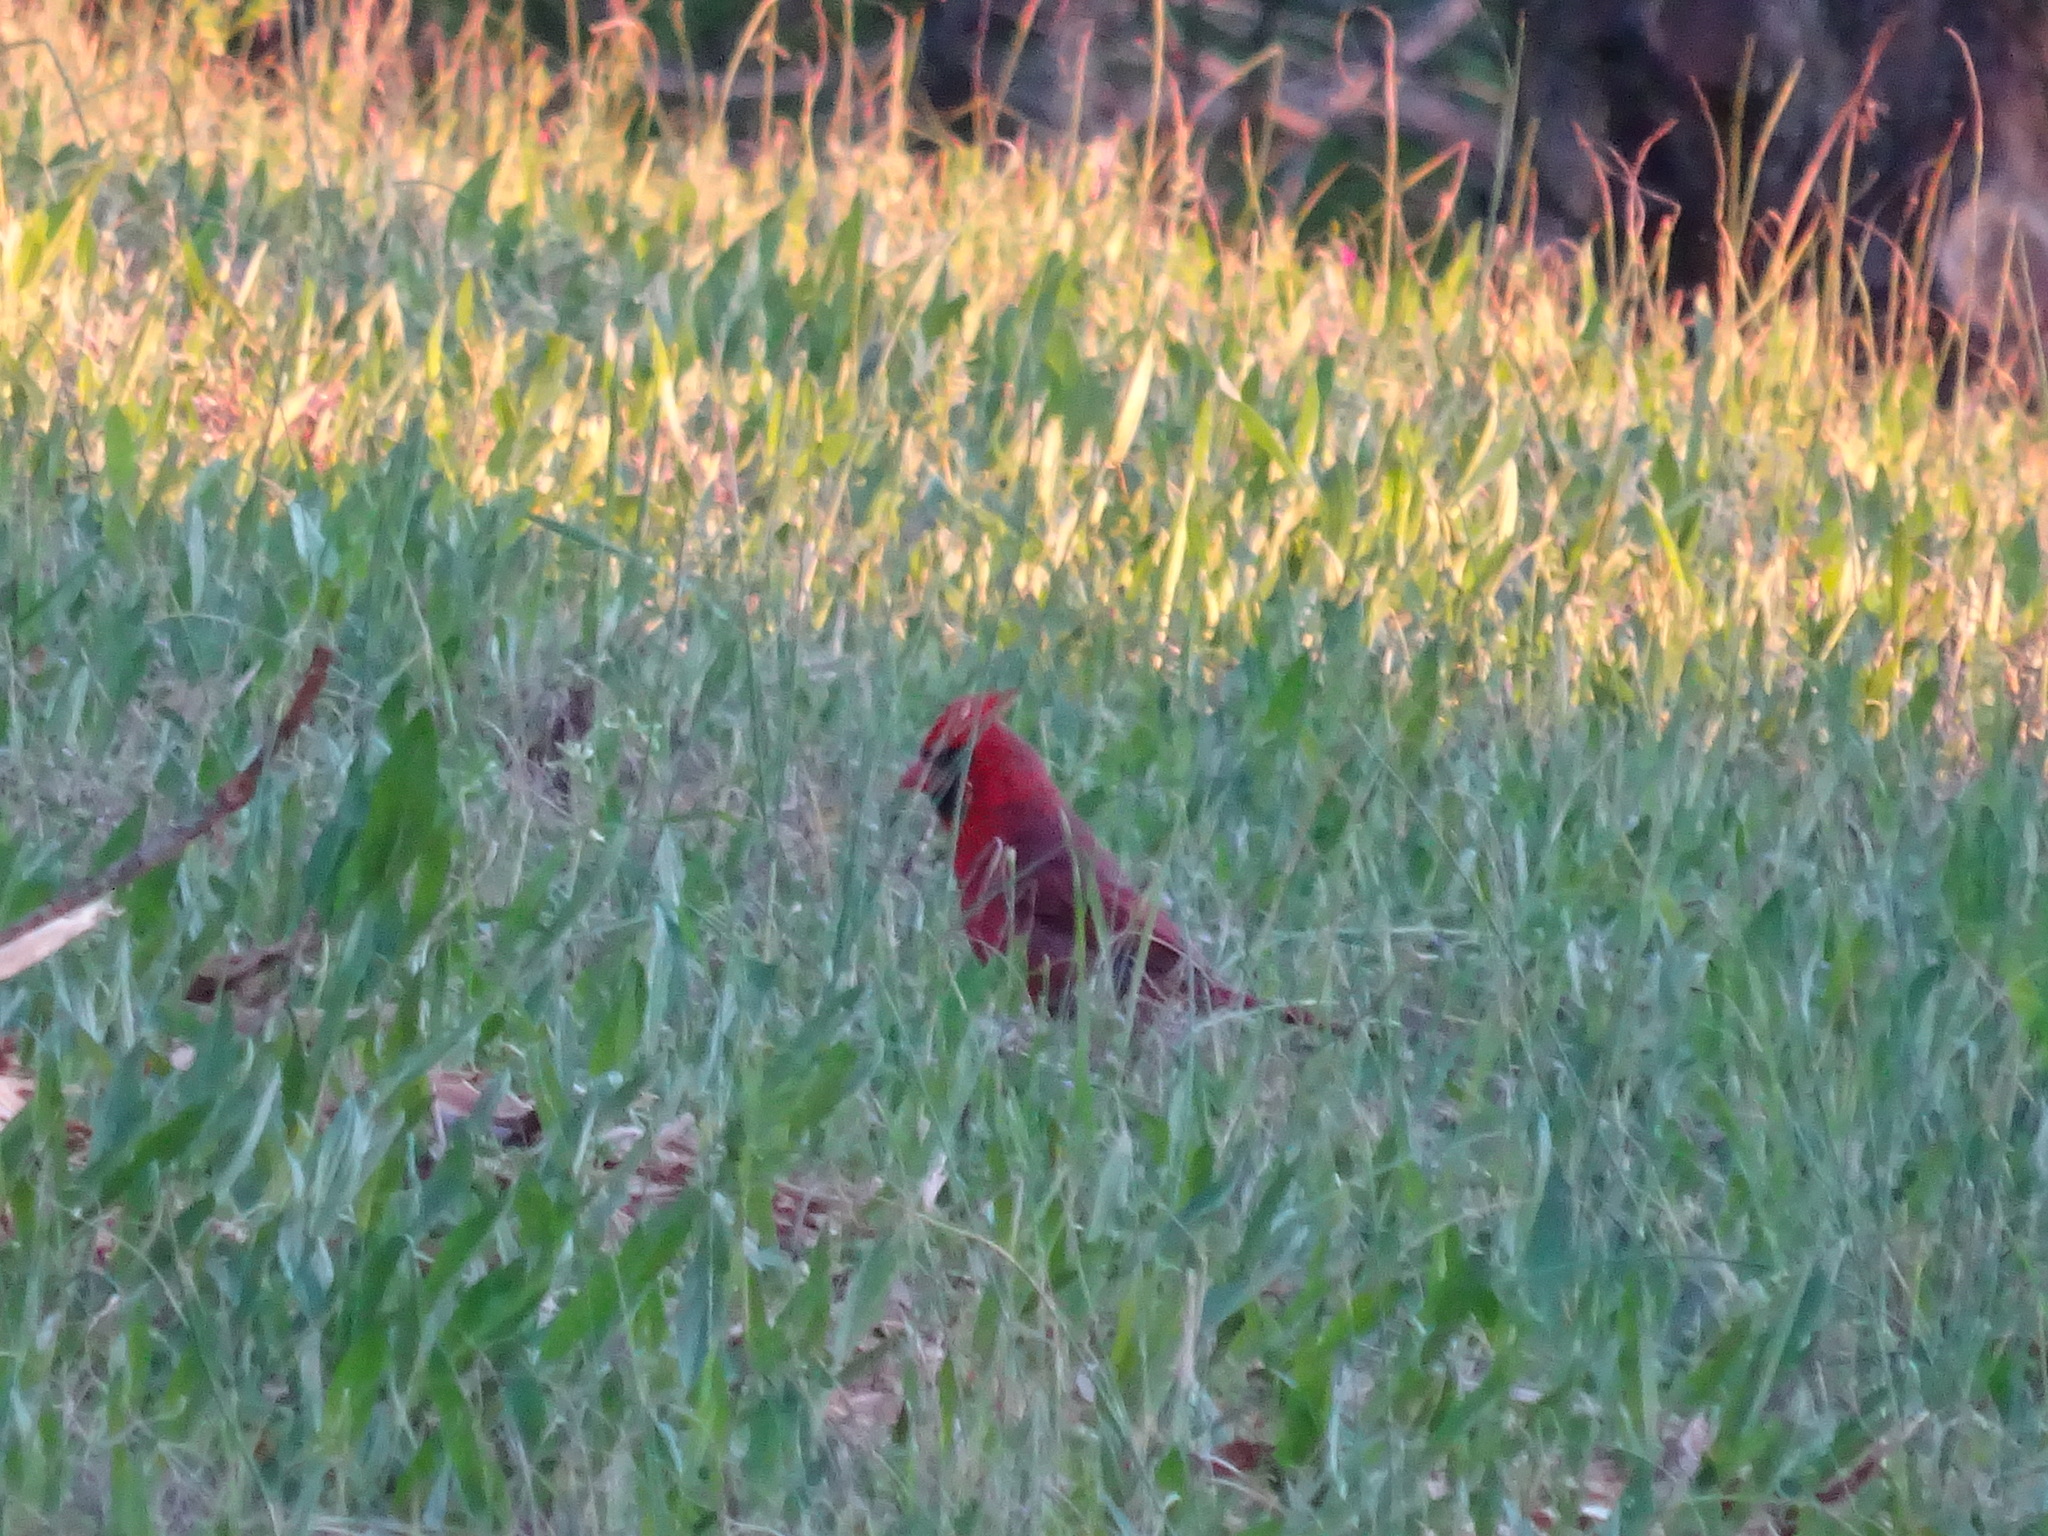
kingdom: Animalia
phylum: Chordata
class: Aves
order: Passeriformes
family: Cardinalidae
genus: Cardinalis
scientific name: Cardinalis cardinalis
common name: Northern cardinal
